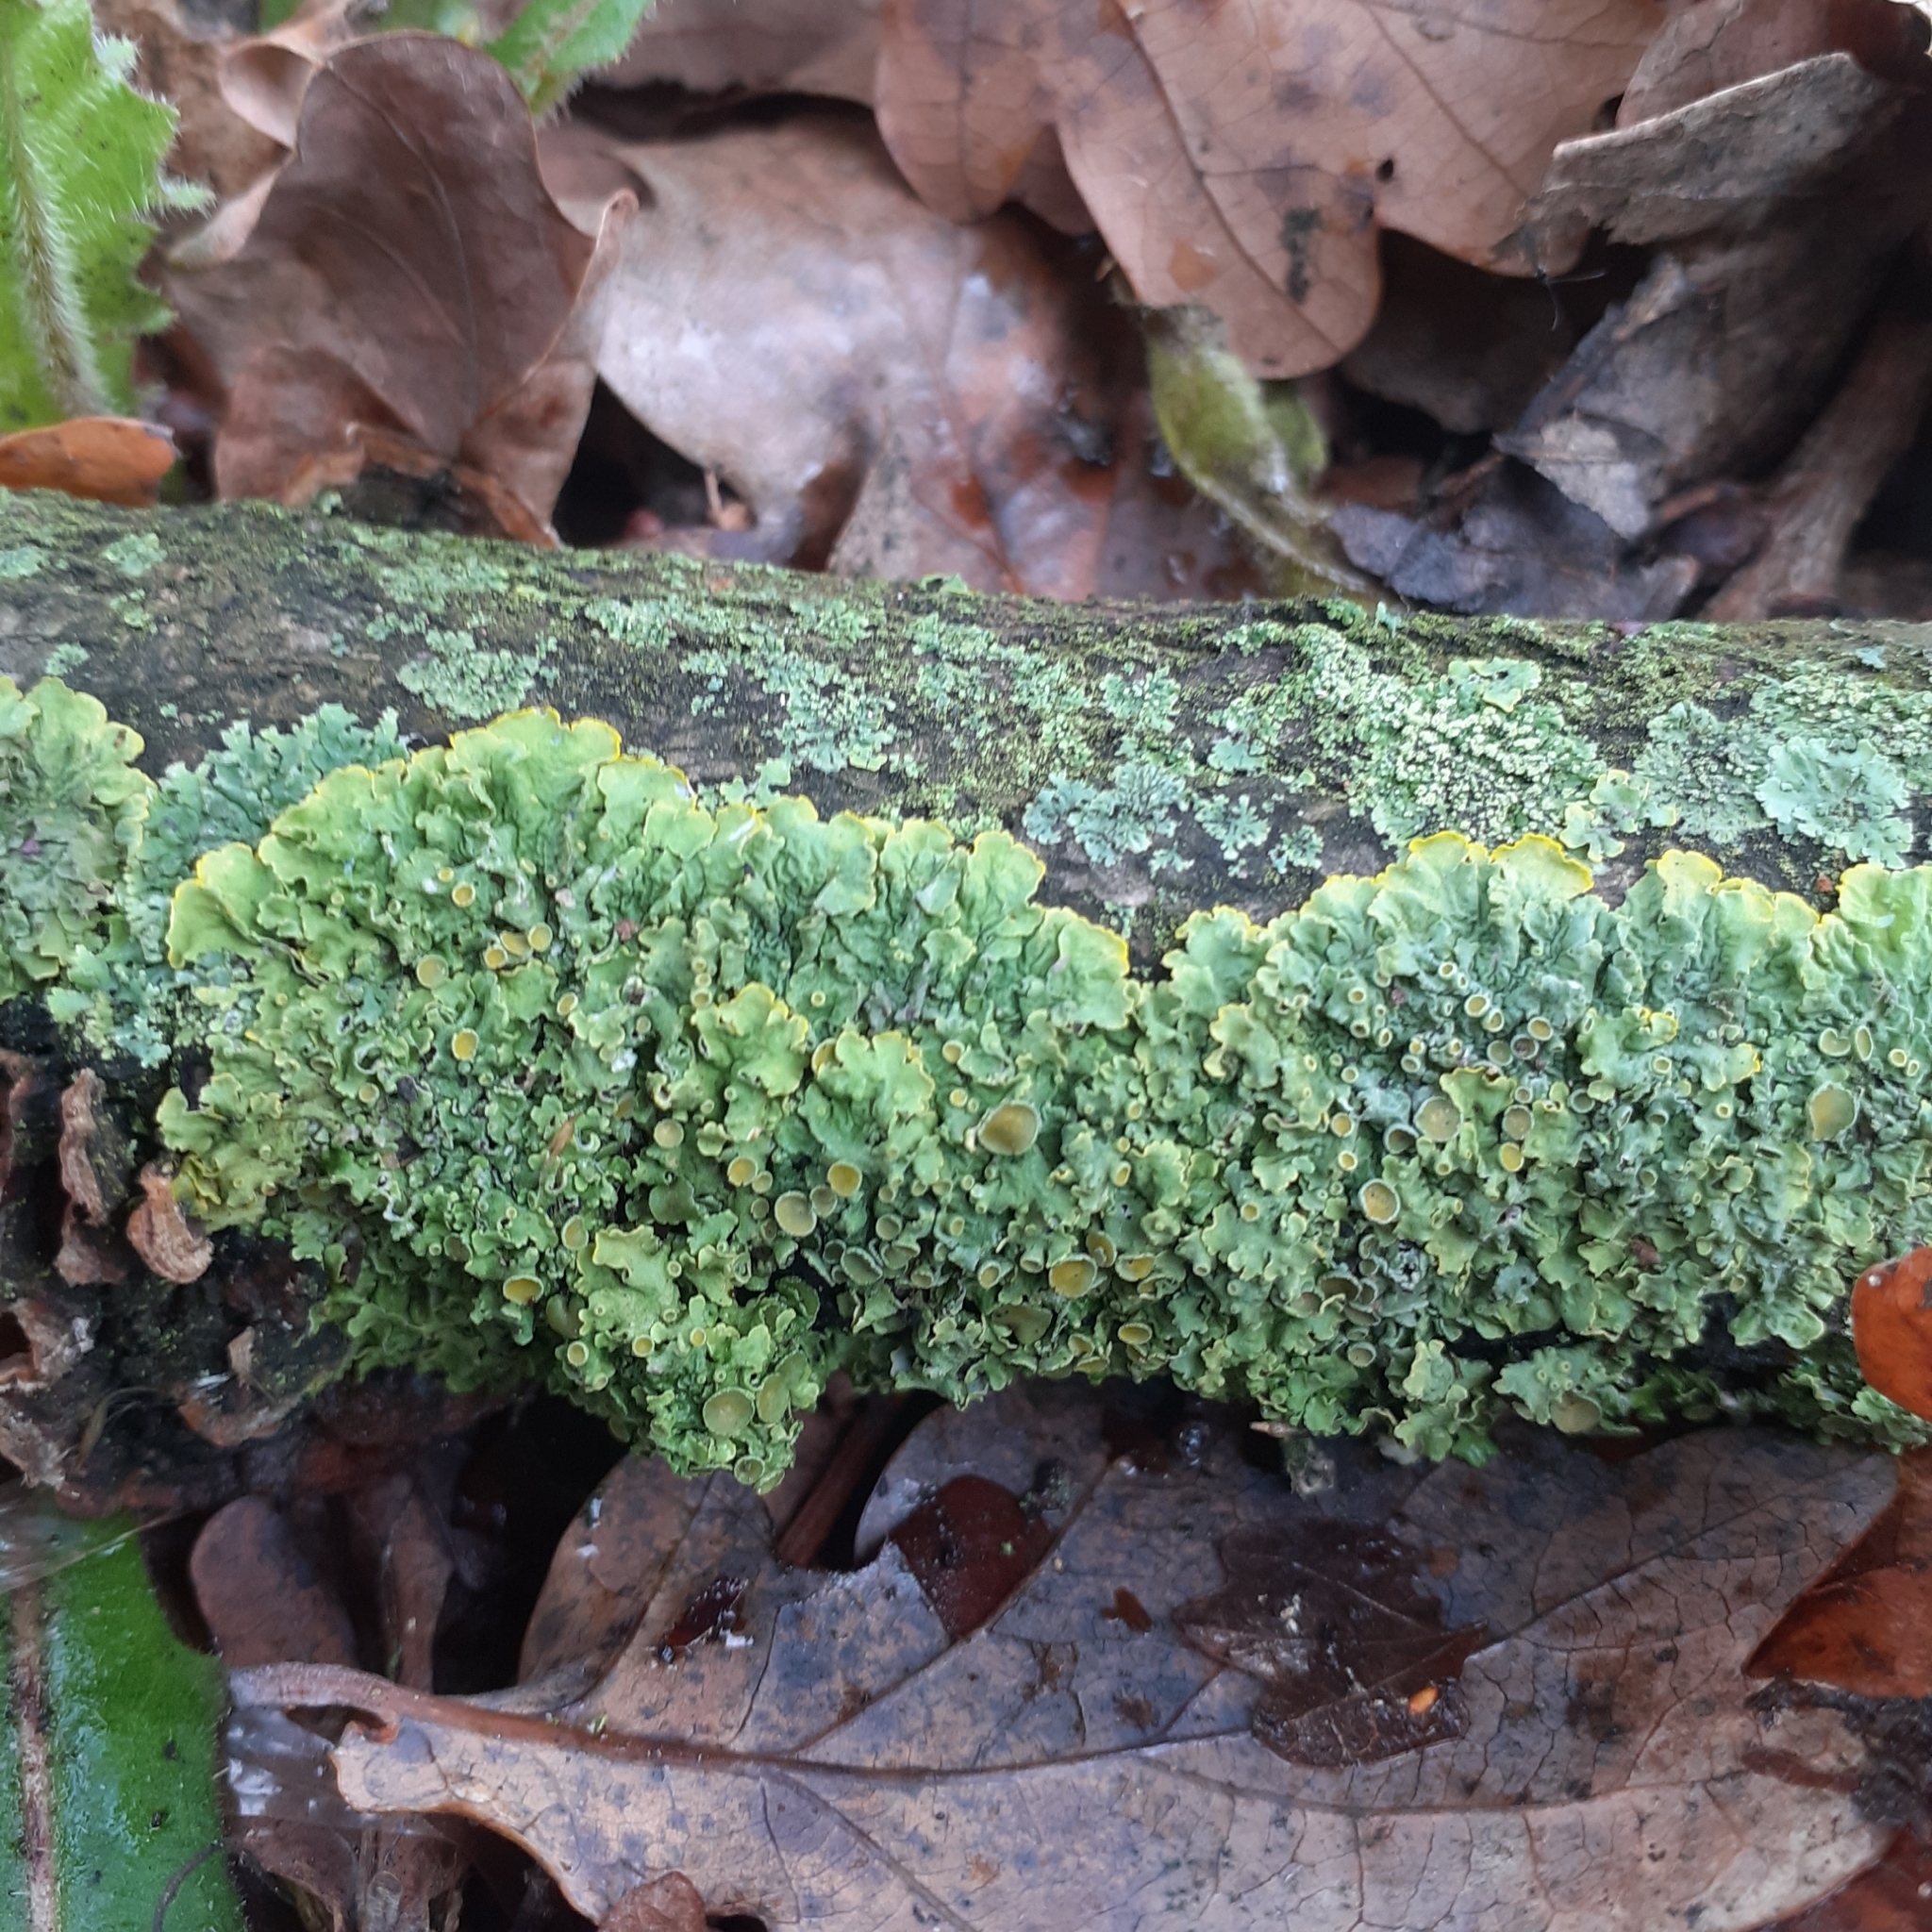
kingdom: Fungi
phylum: Ascomycota
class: Lecanoromycetes
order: Teloschistales
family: Teloschistaceae
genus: Xanthoria
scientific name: Xanthoria parietina
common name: Common orange lichen
